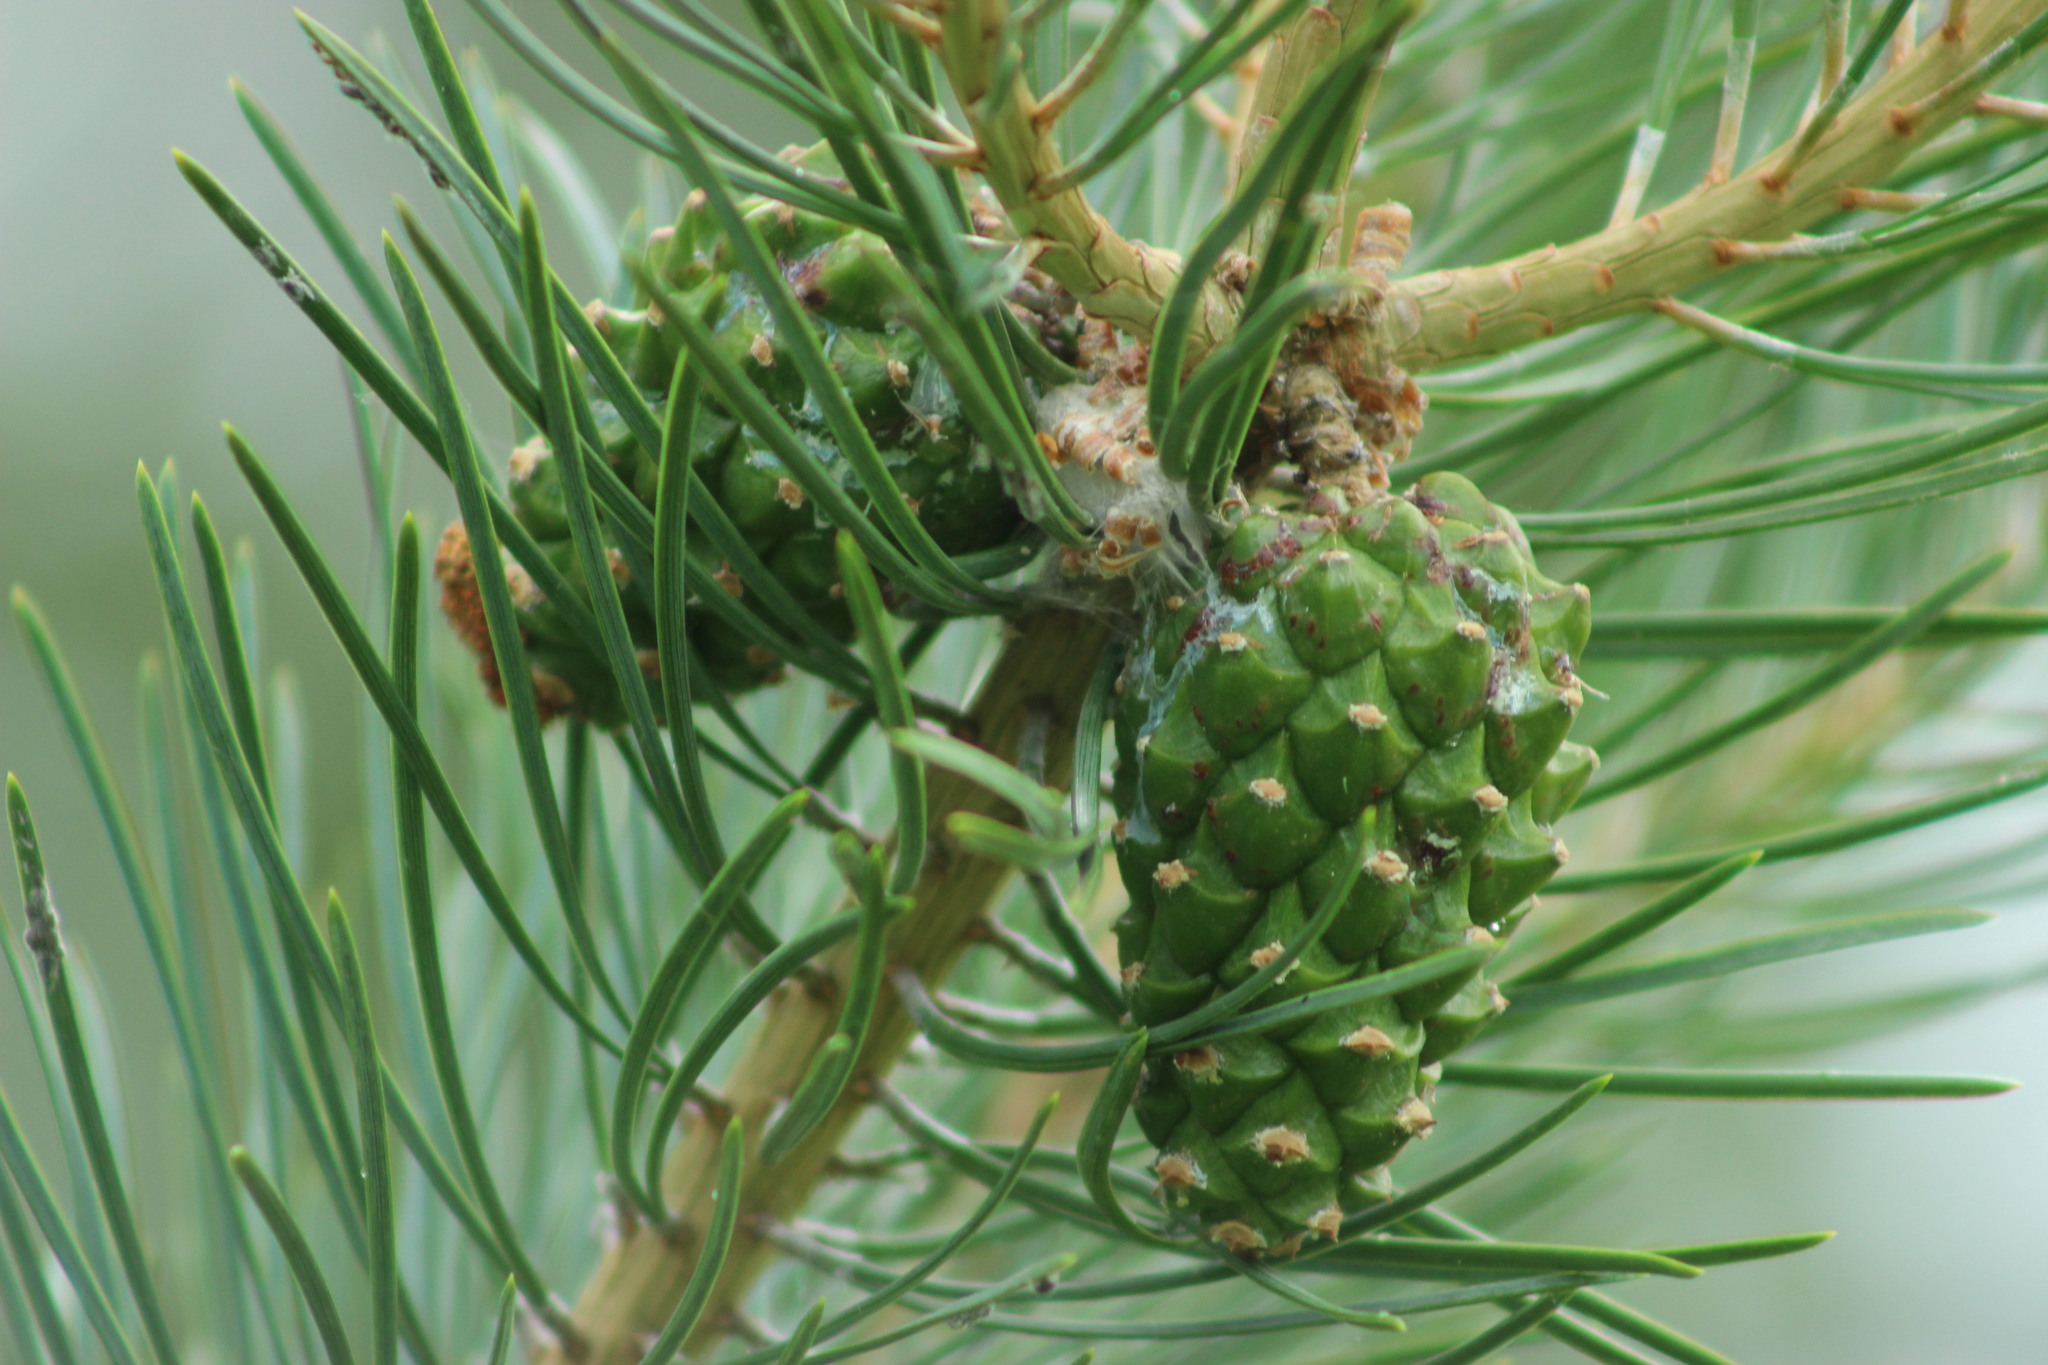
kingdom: Plantae
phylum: Tracheophyta
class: Pinopsida
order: Pinales
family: Pinaceae
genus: Pinus
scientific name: Pinus sylvestris
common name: Scots pine
